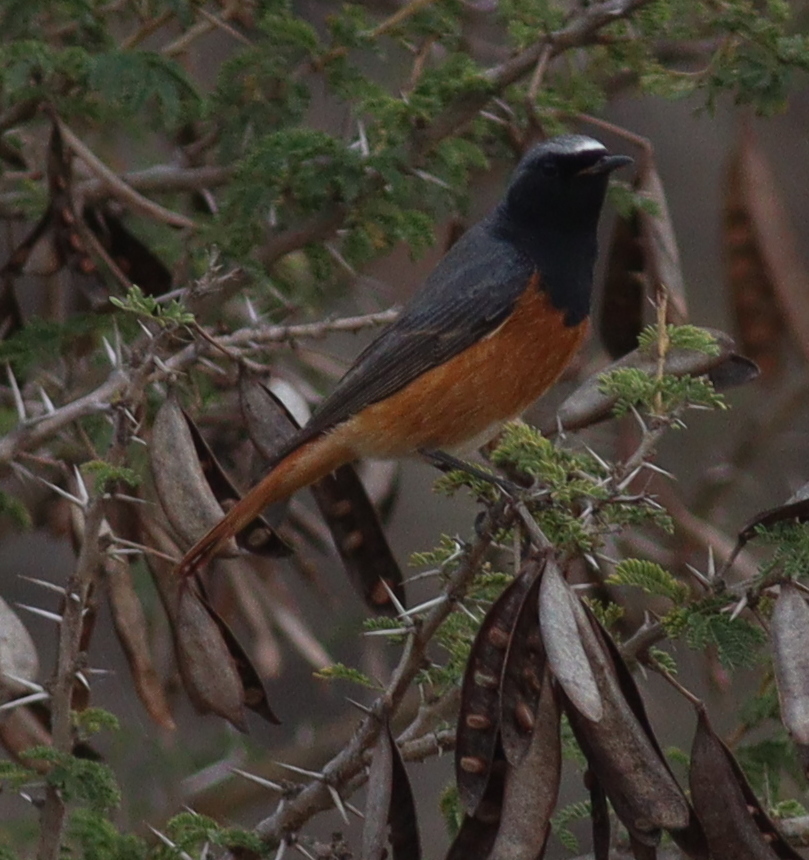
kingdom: Animalia
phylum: Chordata
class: Aves
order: Passeriformes
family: Muscicapidae
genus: Phoenicurus
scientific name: Phoenicurus ochruros
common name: Black redstart
